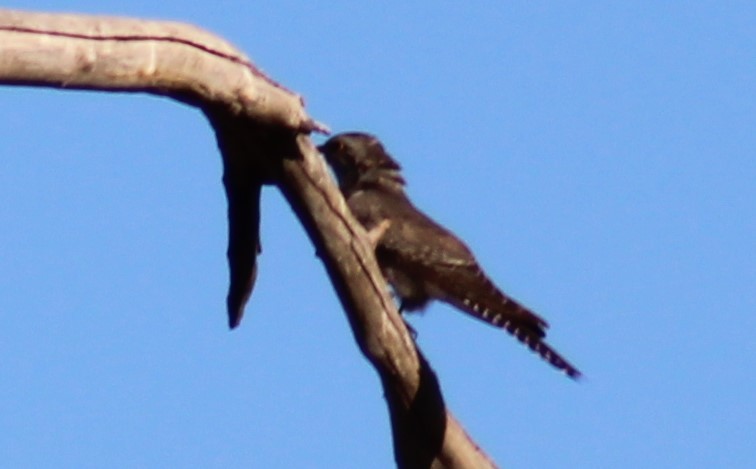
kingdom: Animalia
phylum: Chordata
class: Aves
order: Cuculiformes
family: Cuculidae
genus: Cuculus
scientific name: Cuculus pallidus
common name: Pallid cuckoo
